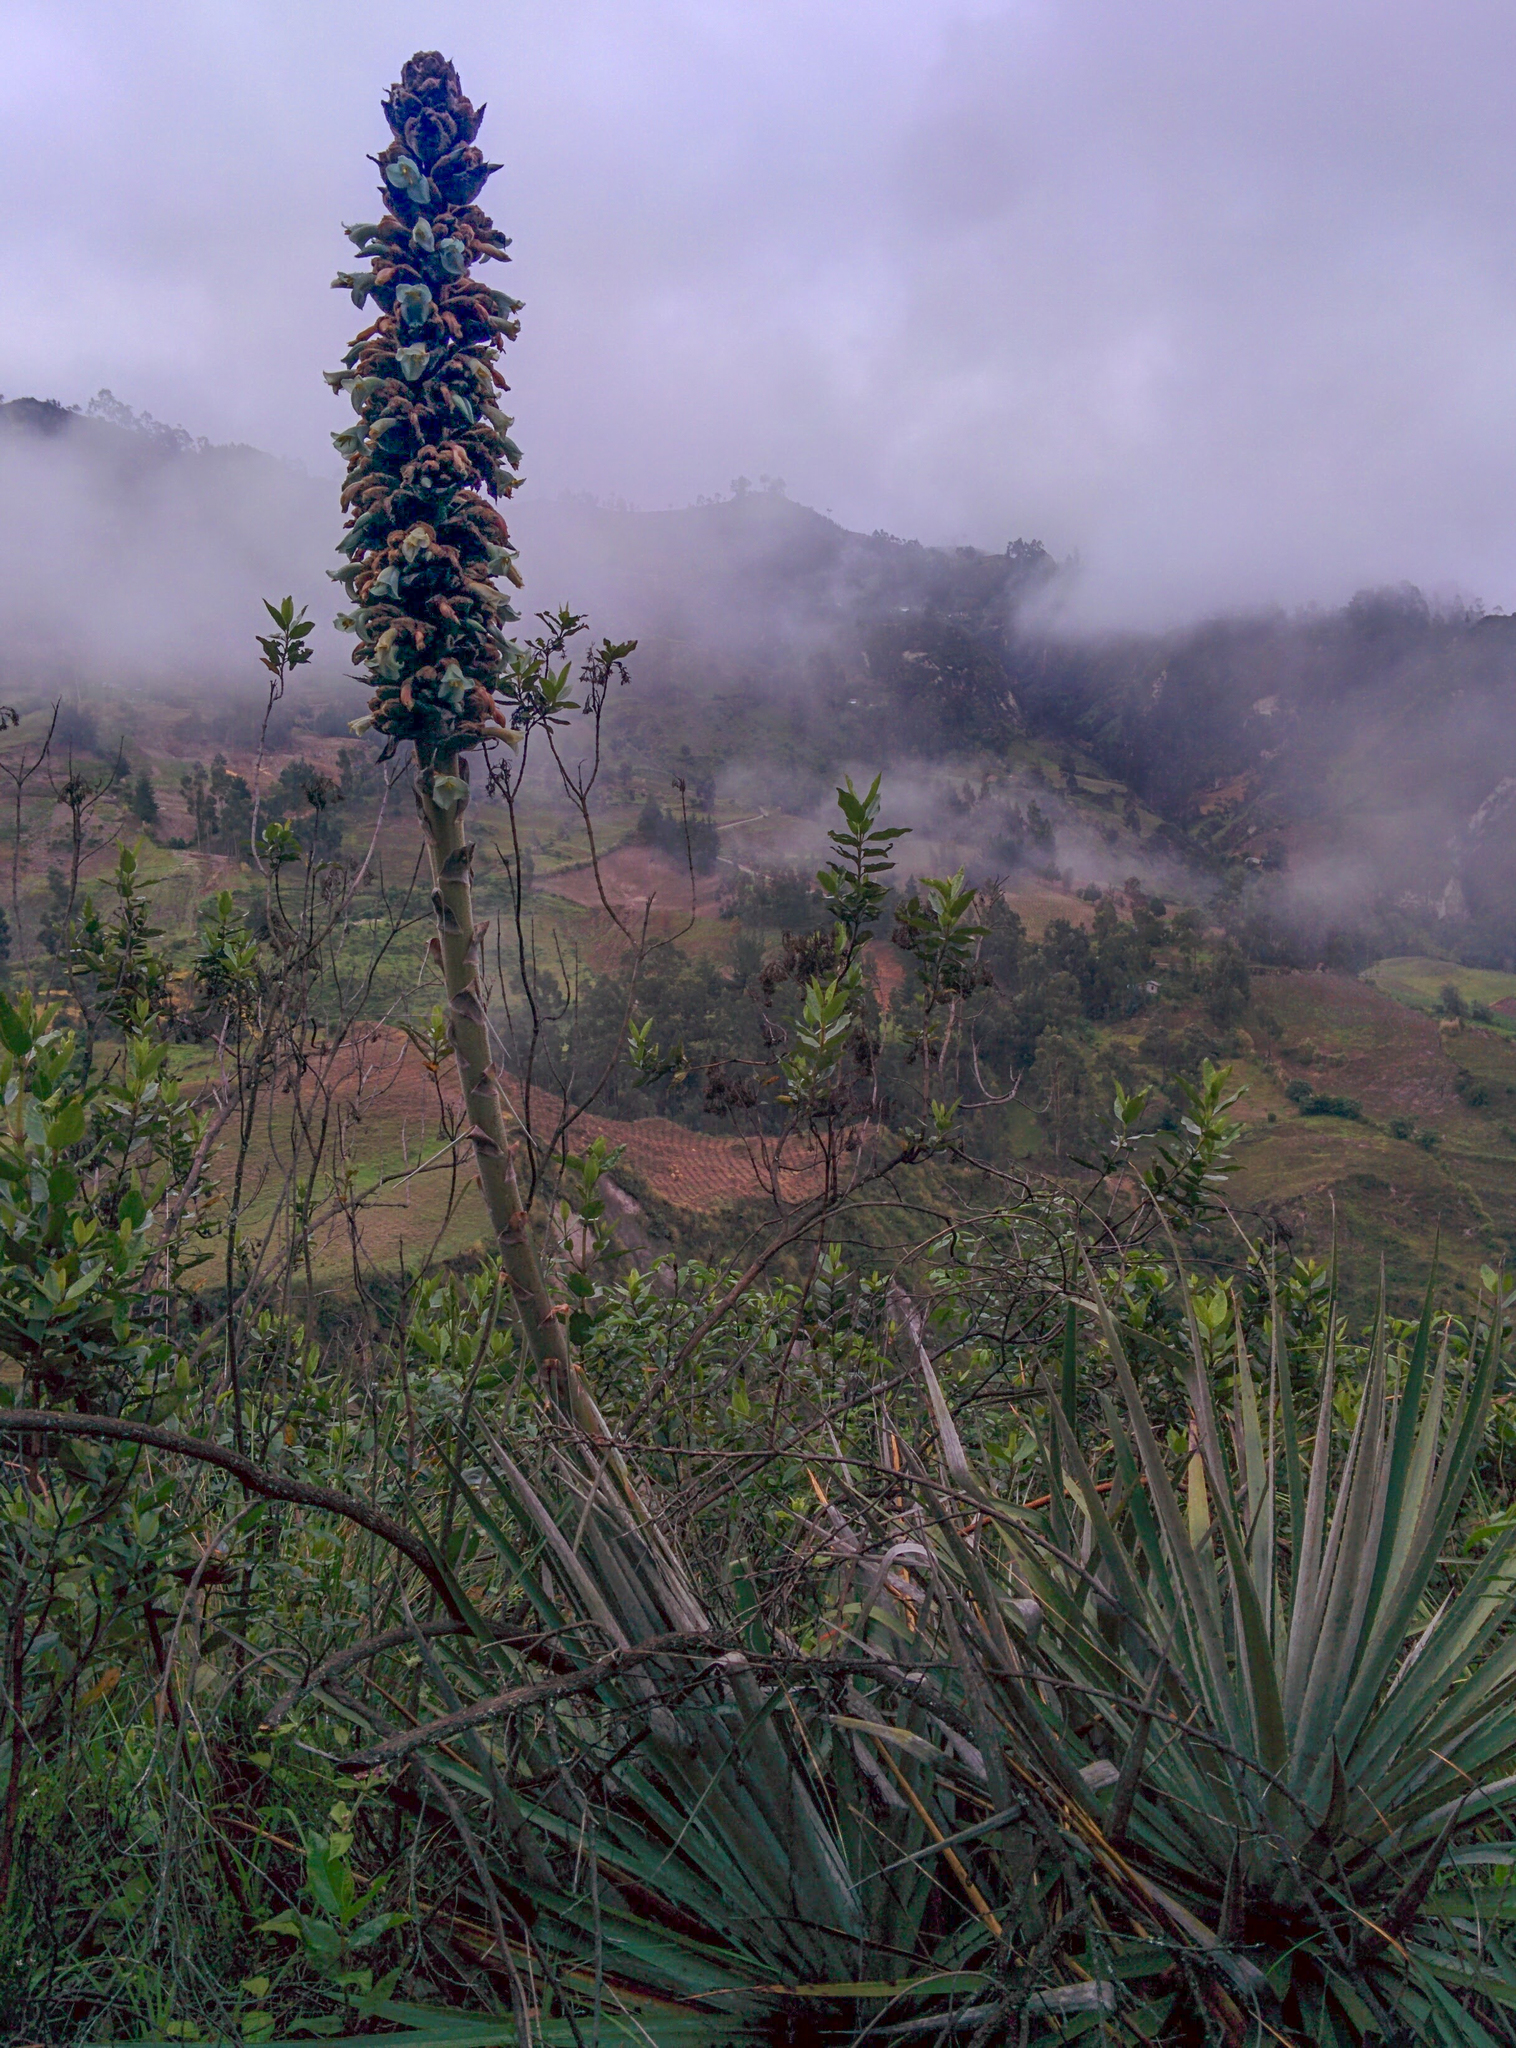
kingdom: Plantae
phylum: Tracheophyta
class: Liliopsida
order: Poales
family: Bromeliaceae
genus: Puya
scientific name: Puya retrorsa
